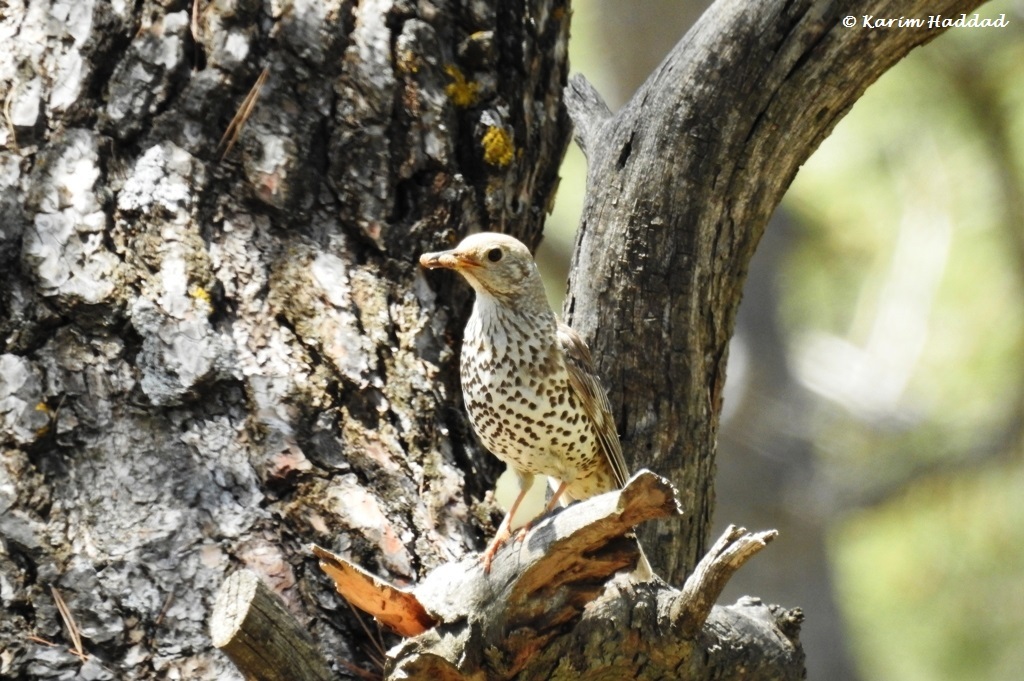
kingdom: Animalia
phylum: Chordata
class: Aves
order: Passeriformes
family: Turdidae
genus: Turdus
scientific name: Turdus viscivorus
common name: Mistle thrush
